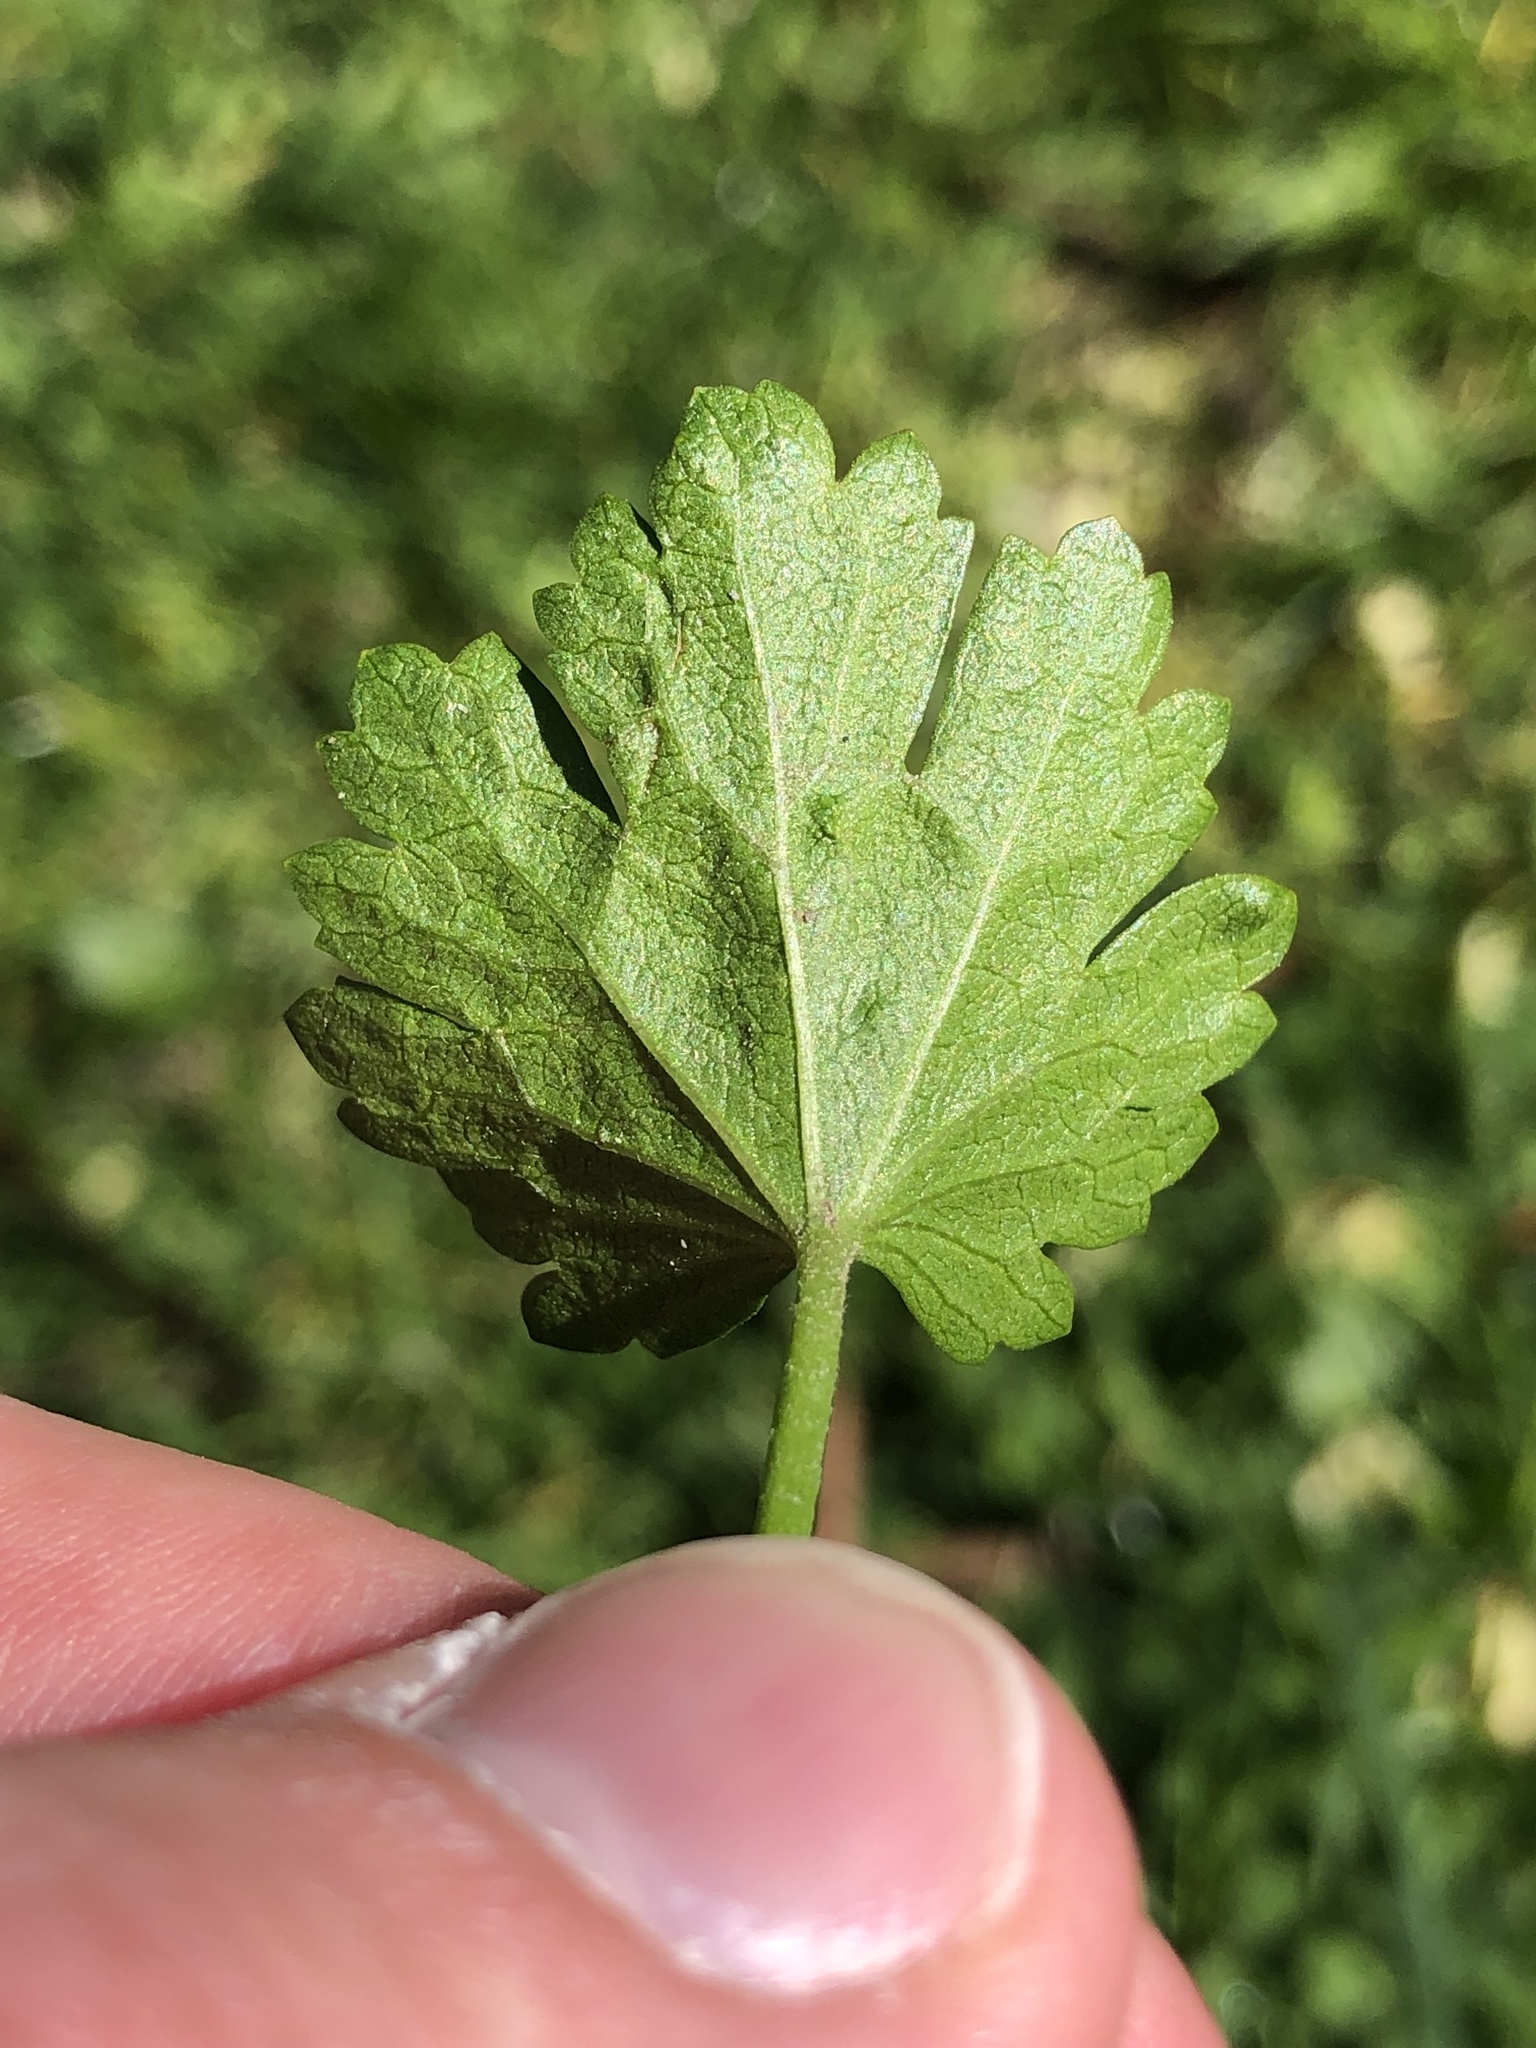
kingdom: Plantae
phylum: Tracheophyta
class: Magnoliopsida
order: Malvales
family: Malvaceae
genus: Modiola
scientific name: Modiola caroliniana
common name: Carolina bristlemallow
